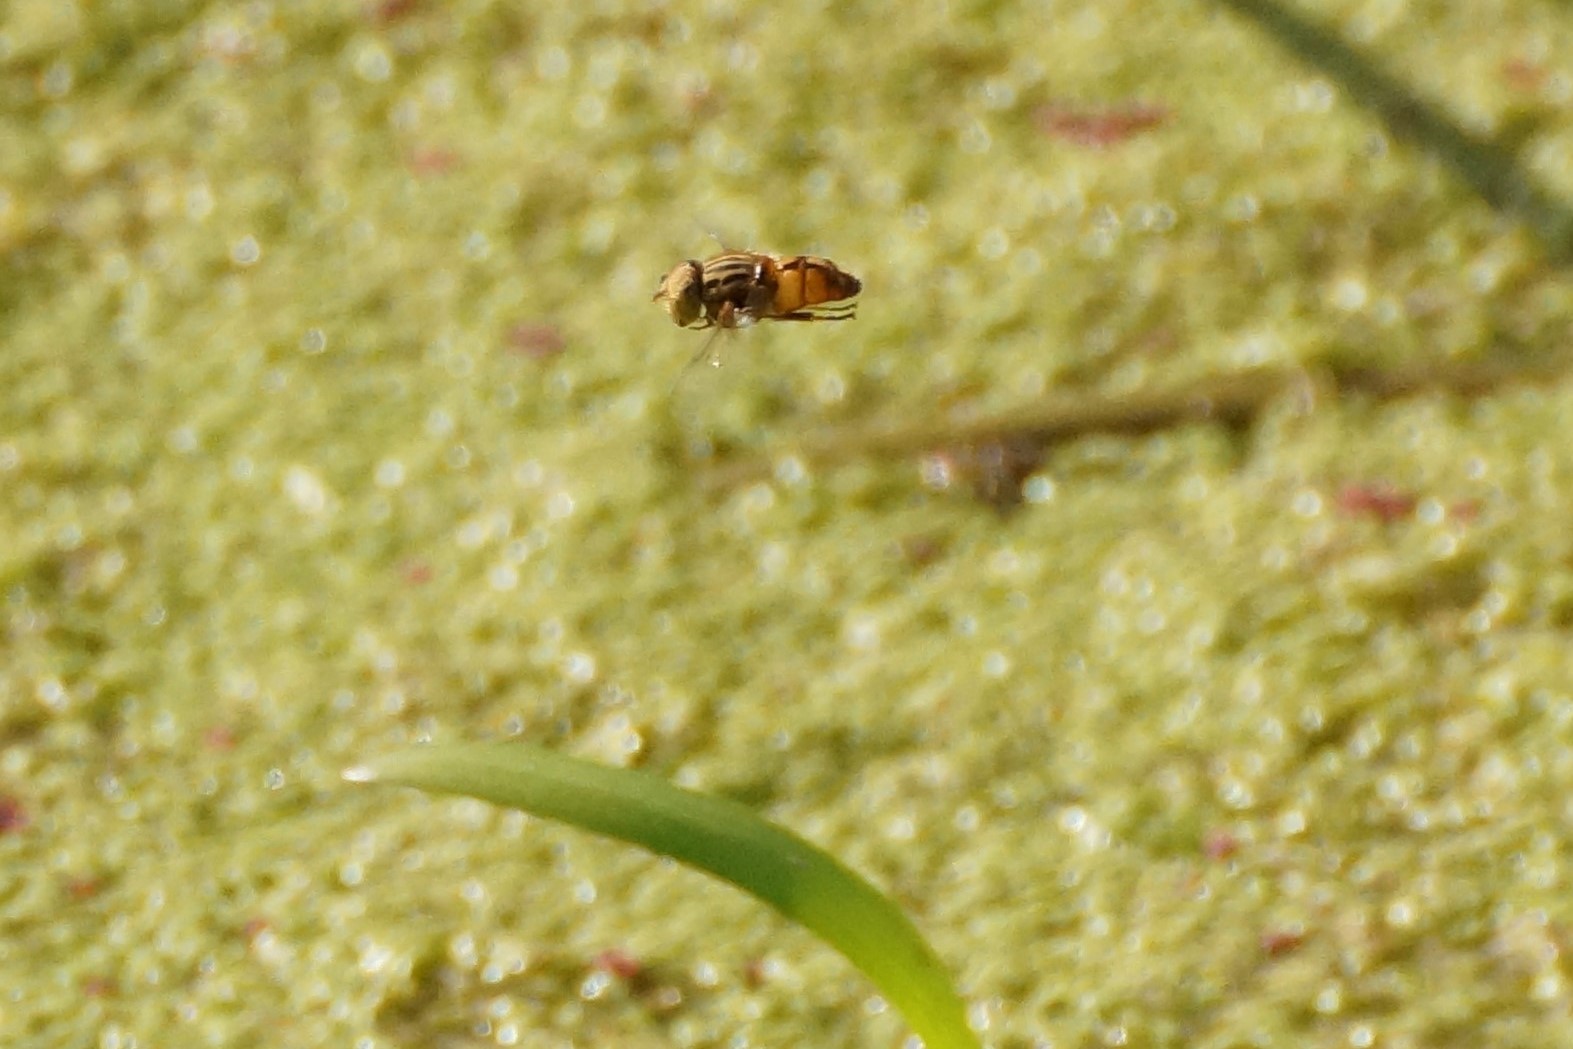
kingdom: Animalia
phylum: Arthropoda
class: Insecta
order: Diptera
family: Syrphidae
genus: Eristalinus
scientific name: Eristalinus punctulatus
